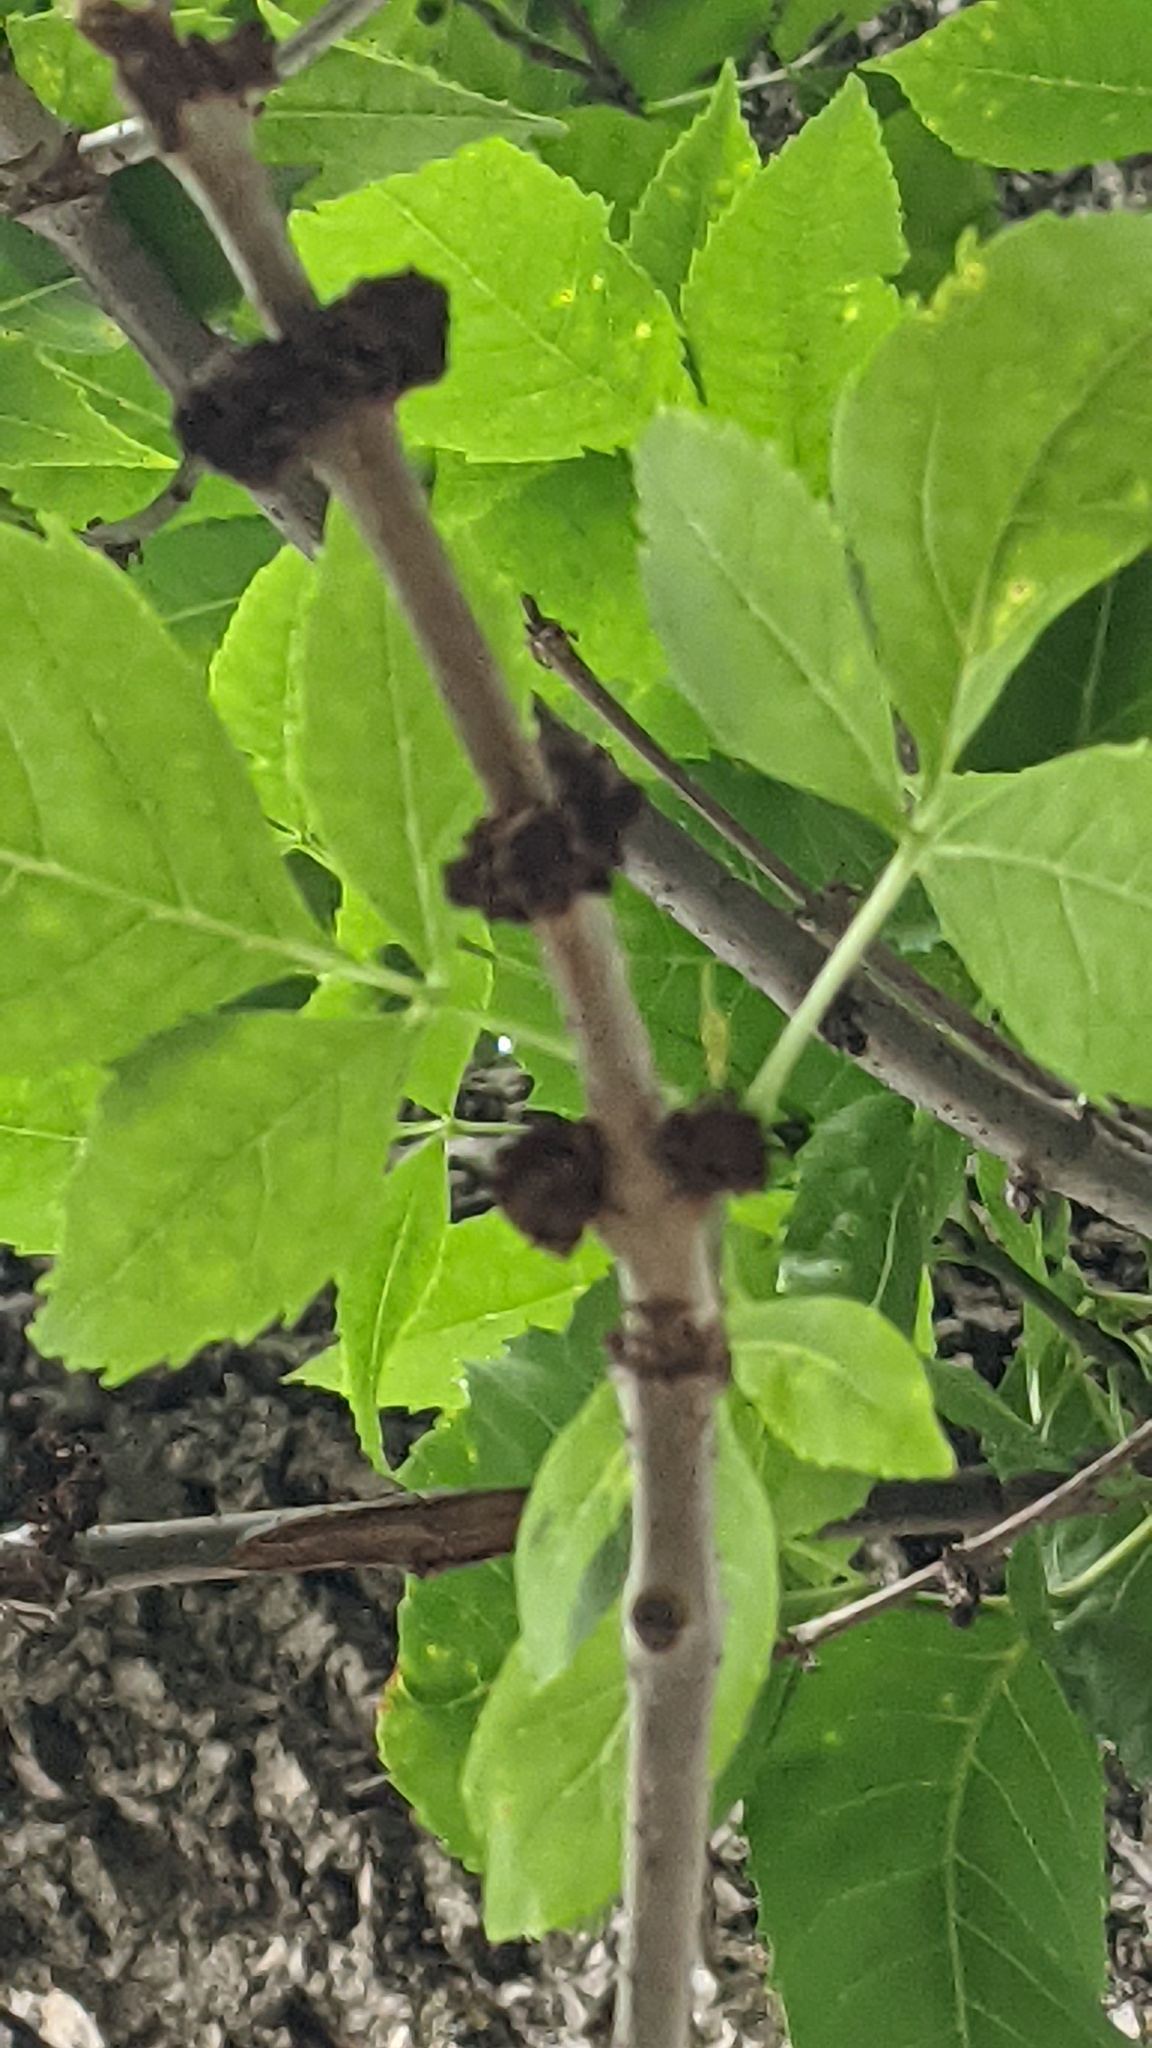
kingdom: Animalia
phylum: Arthropoda
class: Arachnida
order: Trombidiformes
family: Eriophyidae
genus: Aceria
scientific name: Aceria fraxiniflora
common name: Ash flower gall mite
